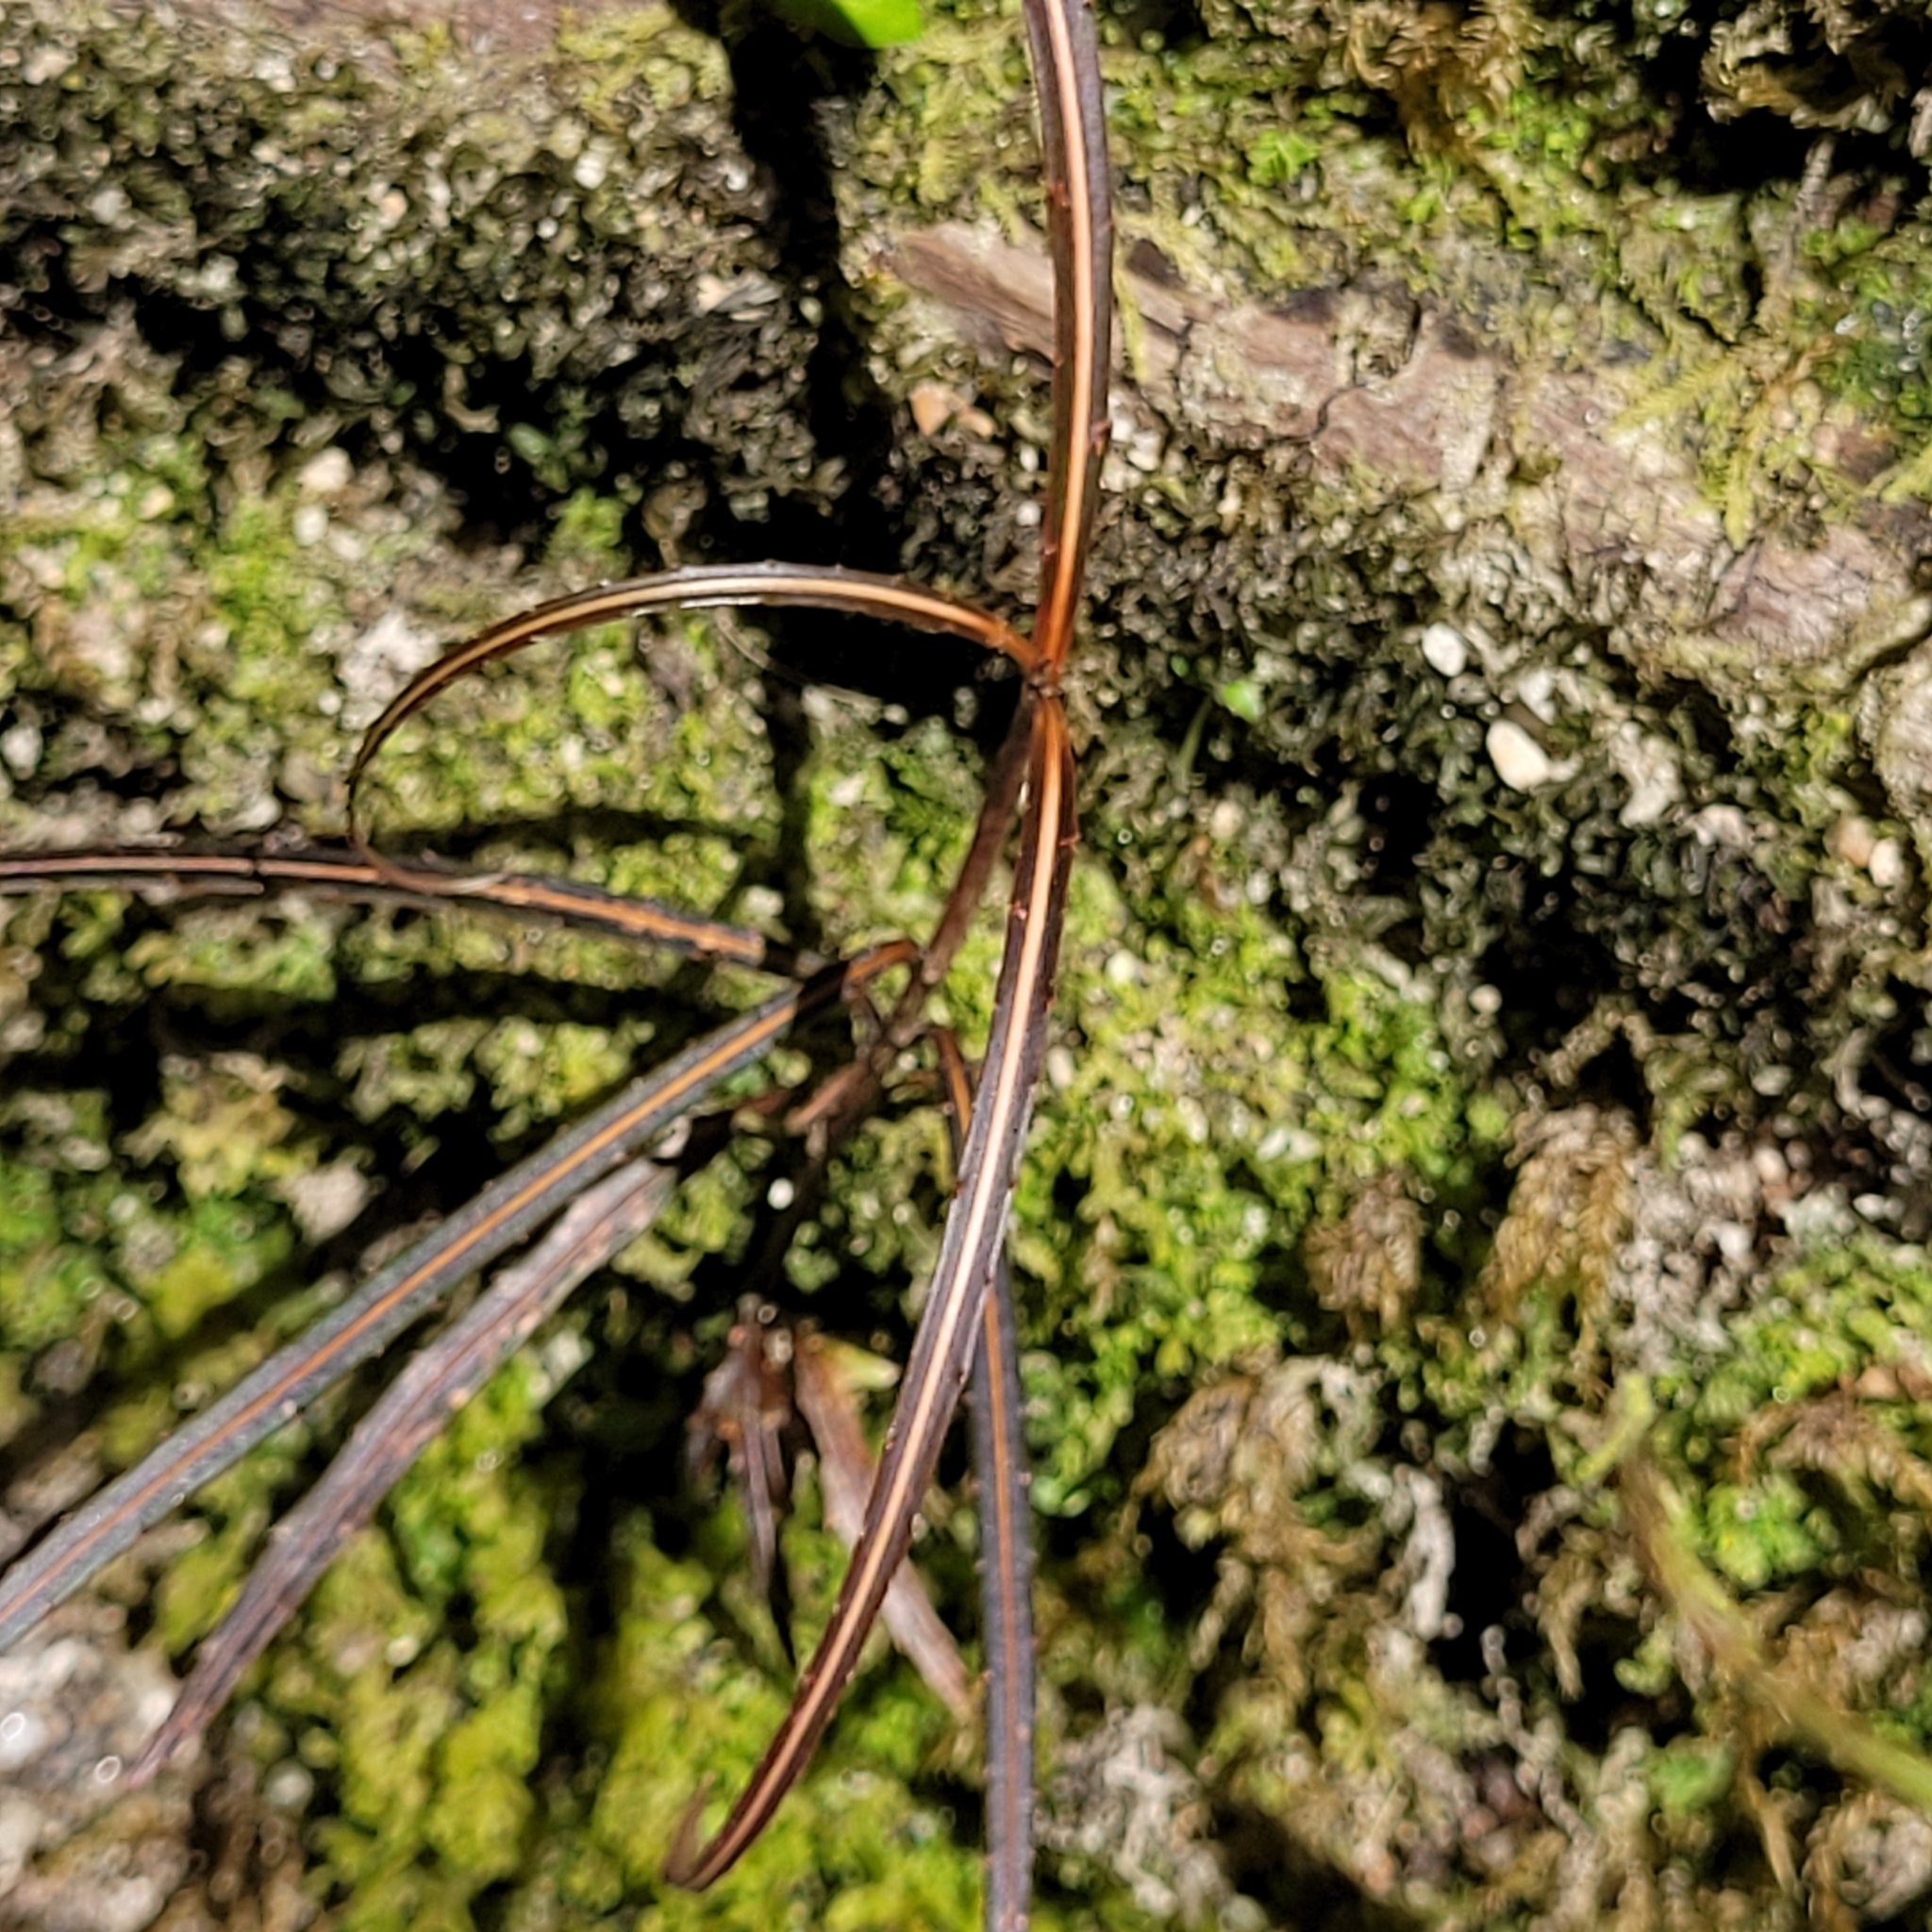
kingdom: Plantae
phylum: Tracheophyta
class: Magnoliopsida
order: Apiales
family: Araliaceae
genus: Pseudopanax
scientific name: Pseudopanax crassifolius
